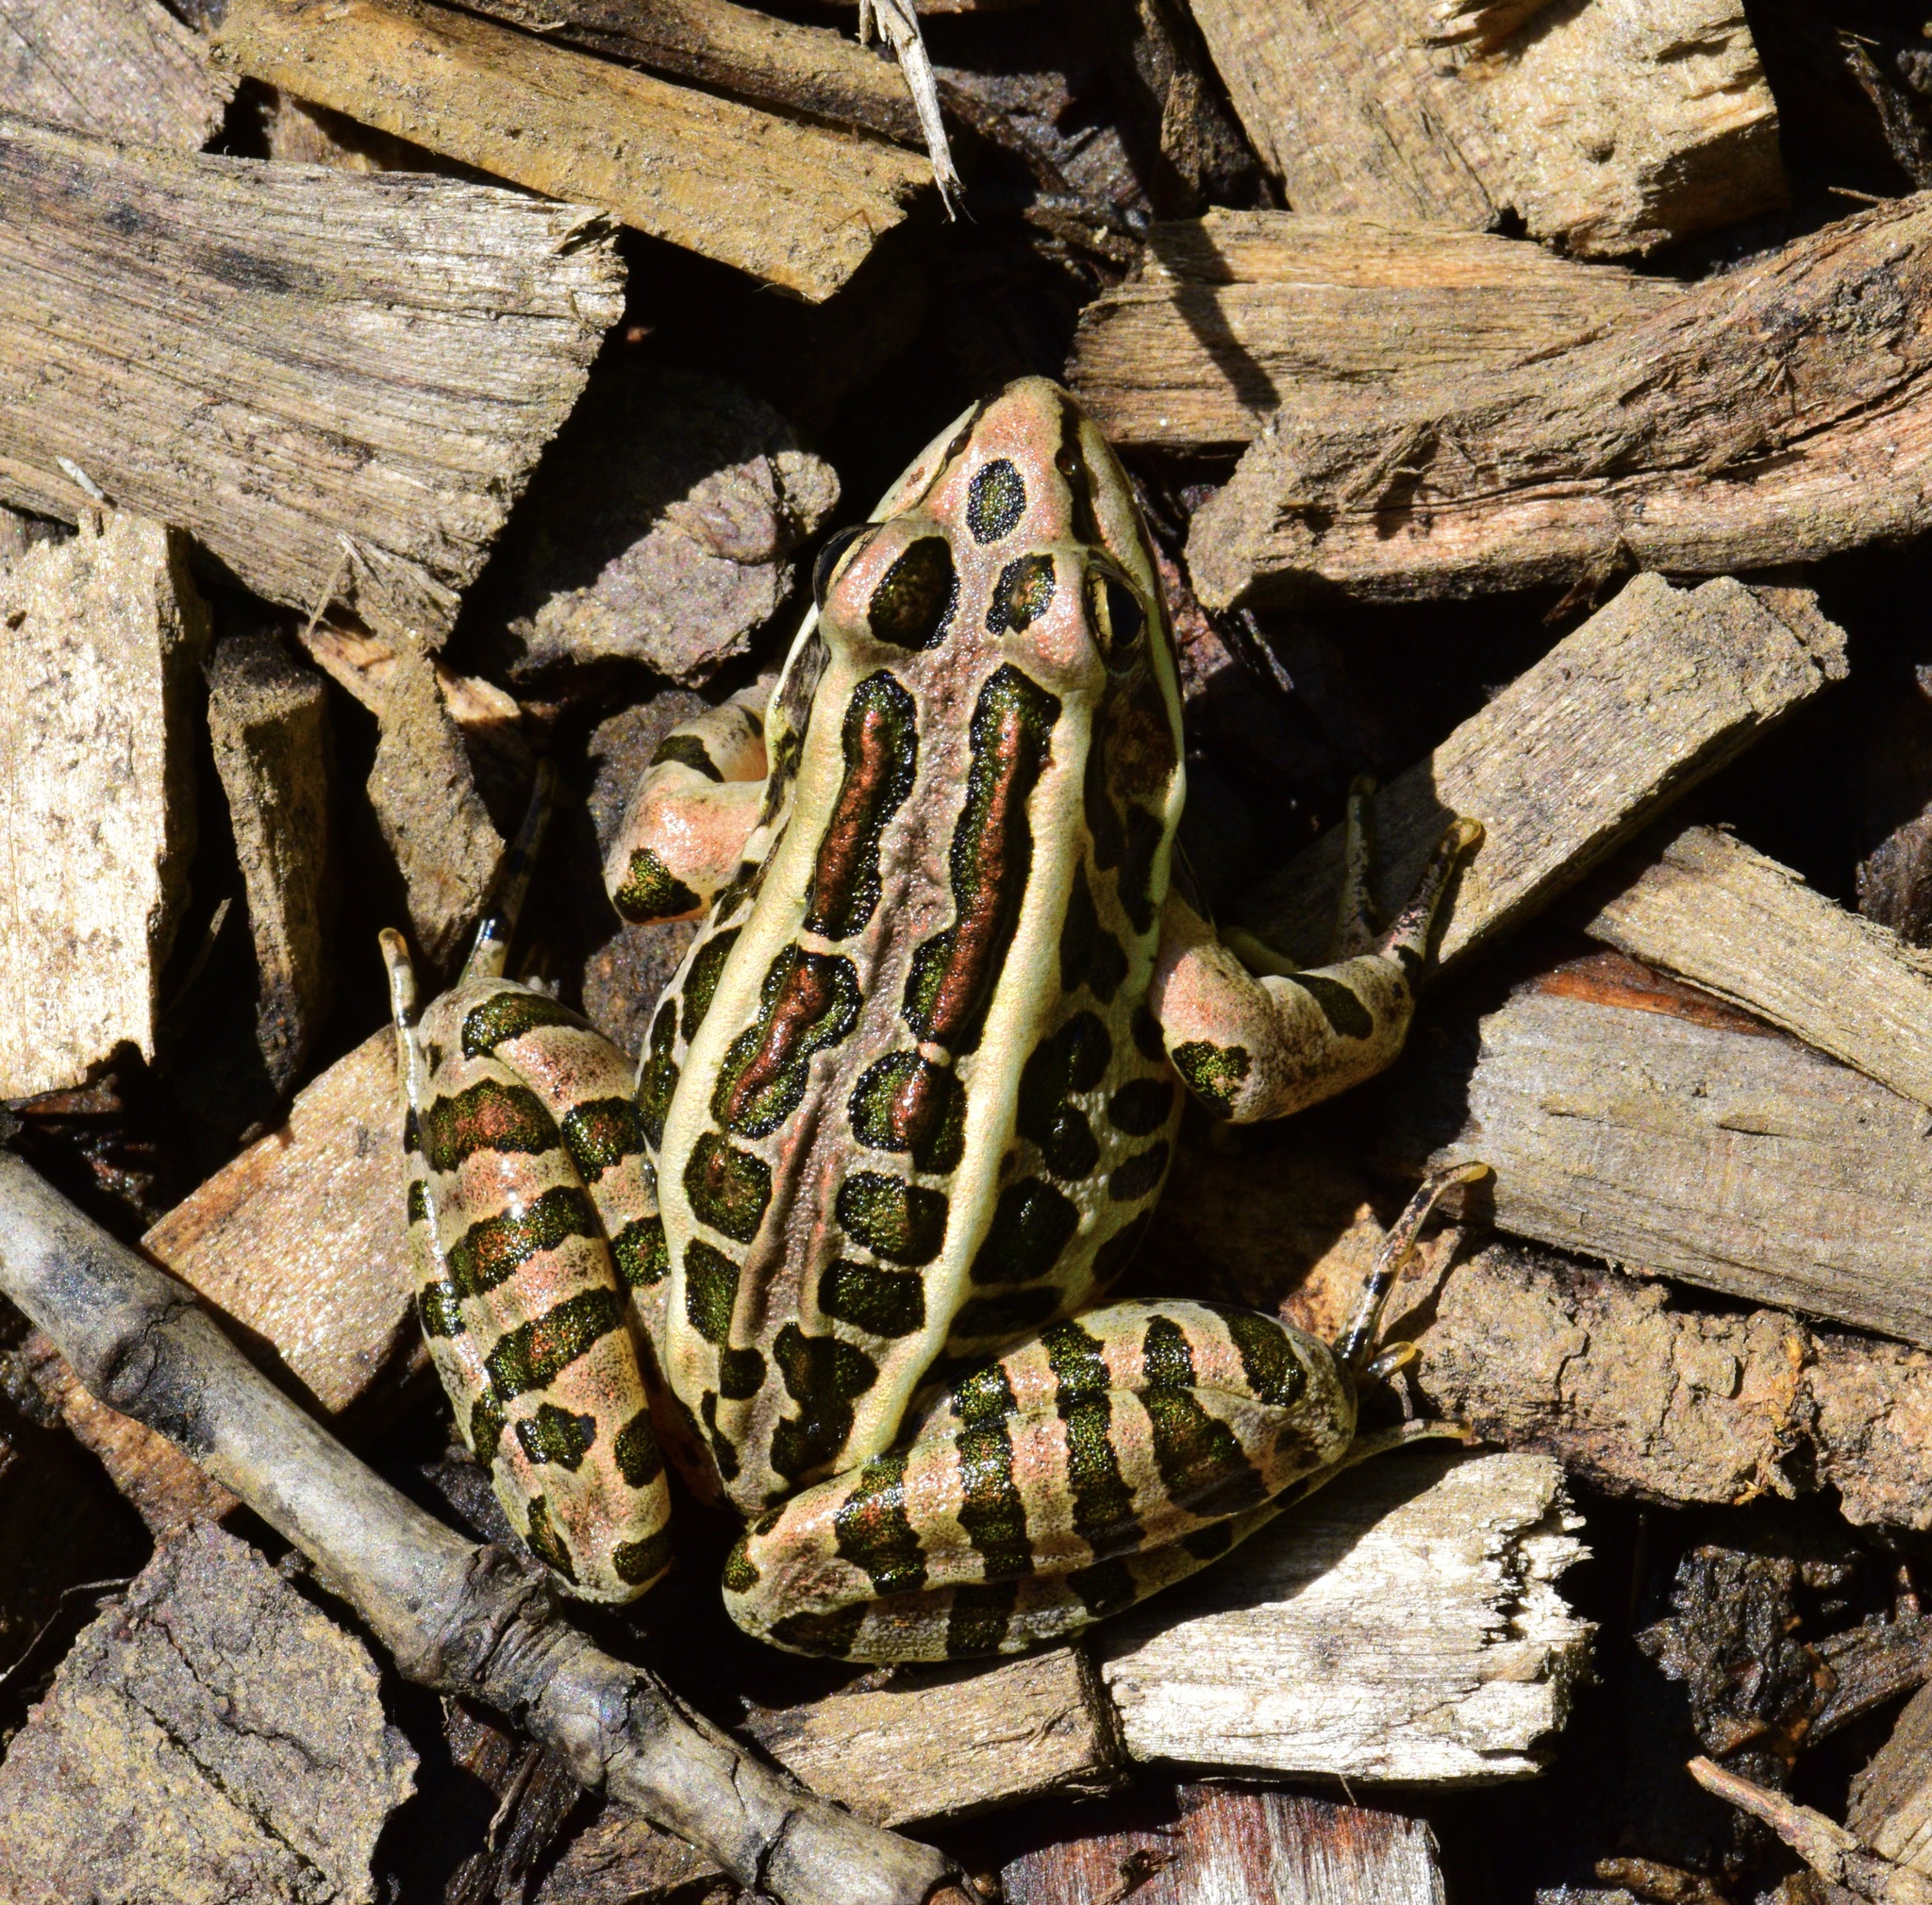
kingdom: Animalia
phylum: Chordata
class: Amphibia
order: Anura
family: Ranidae
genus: Lithobates
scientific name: Lithobates palustris
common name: Pickerel frog
